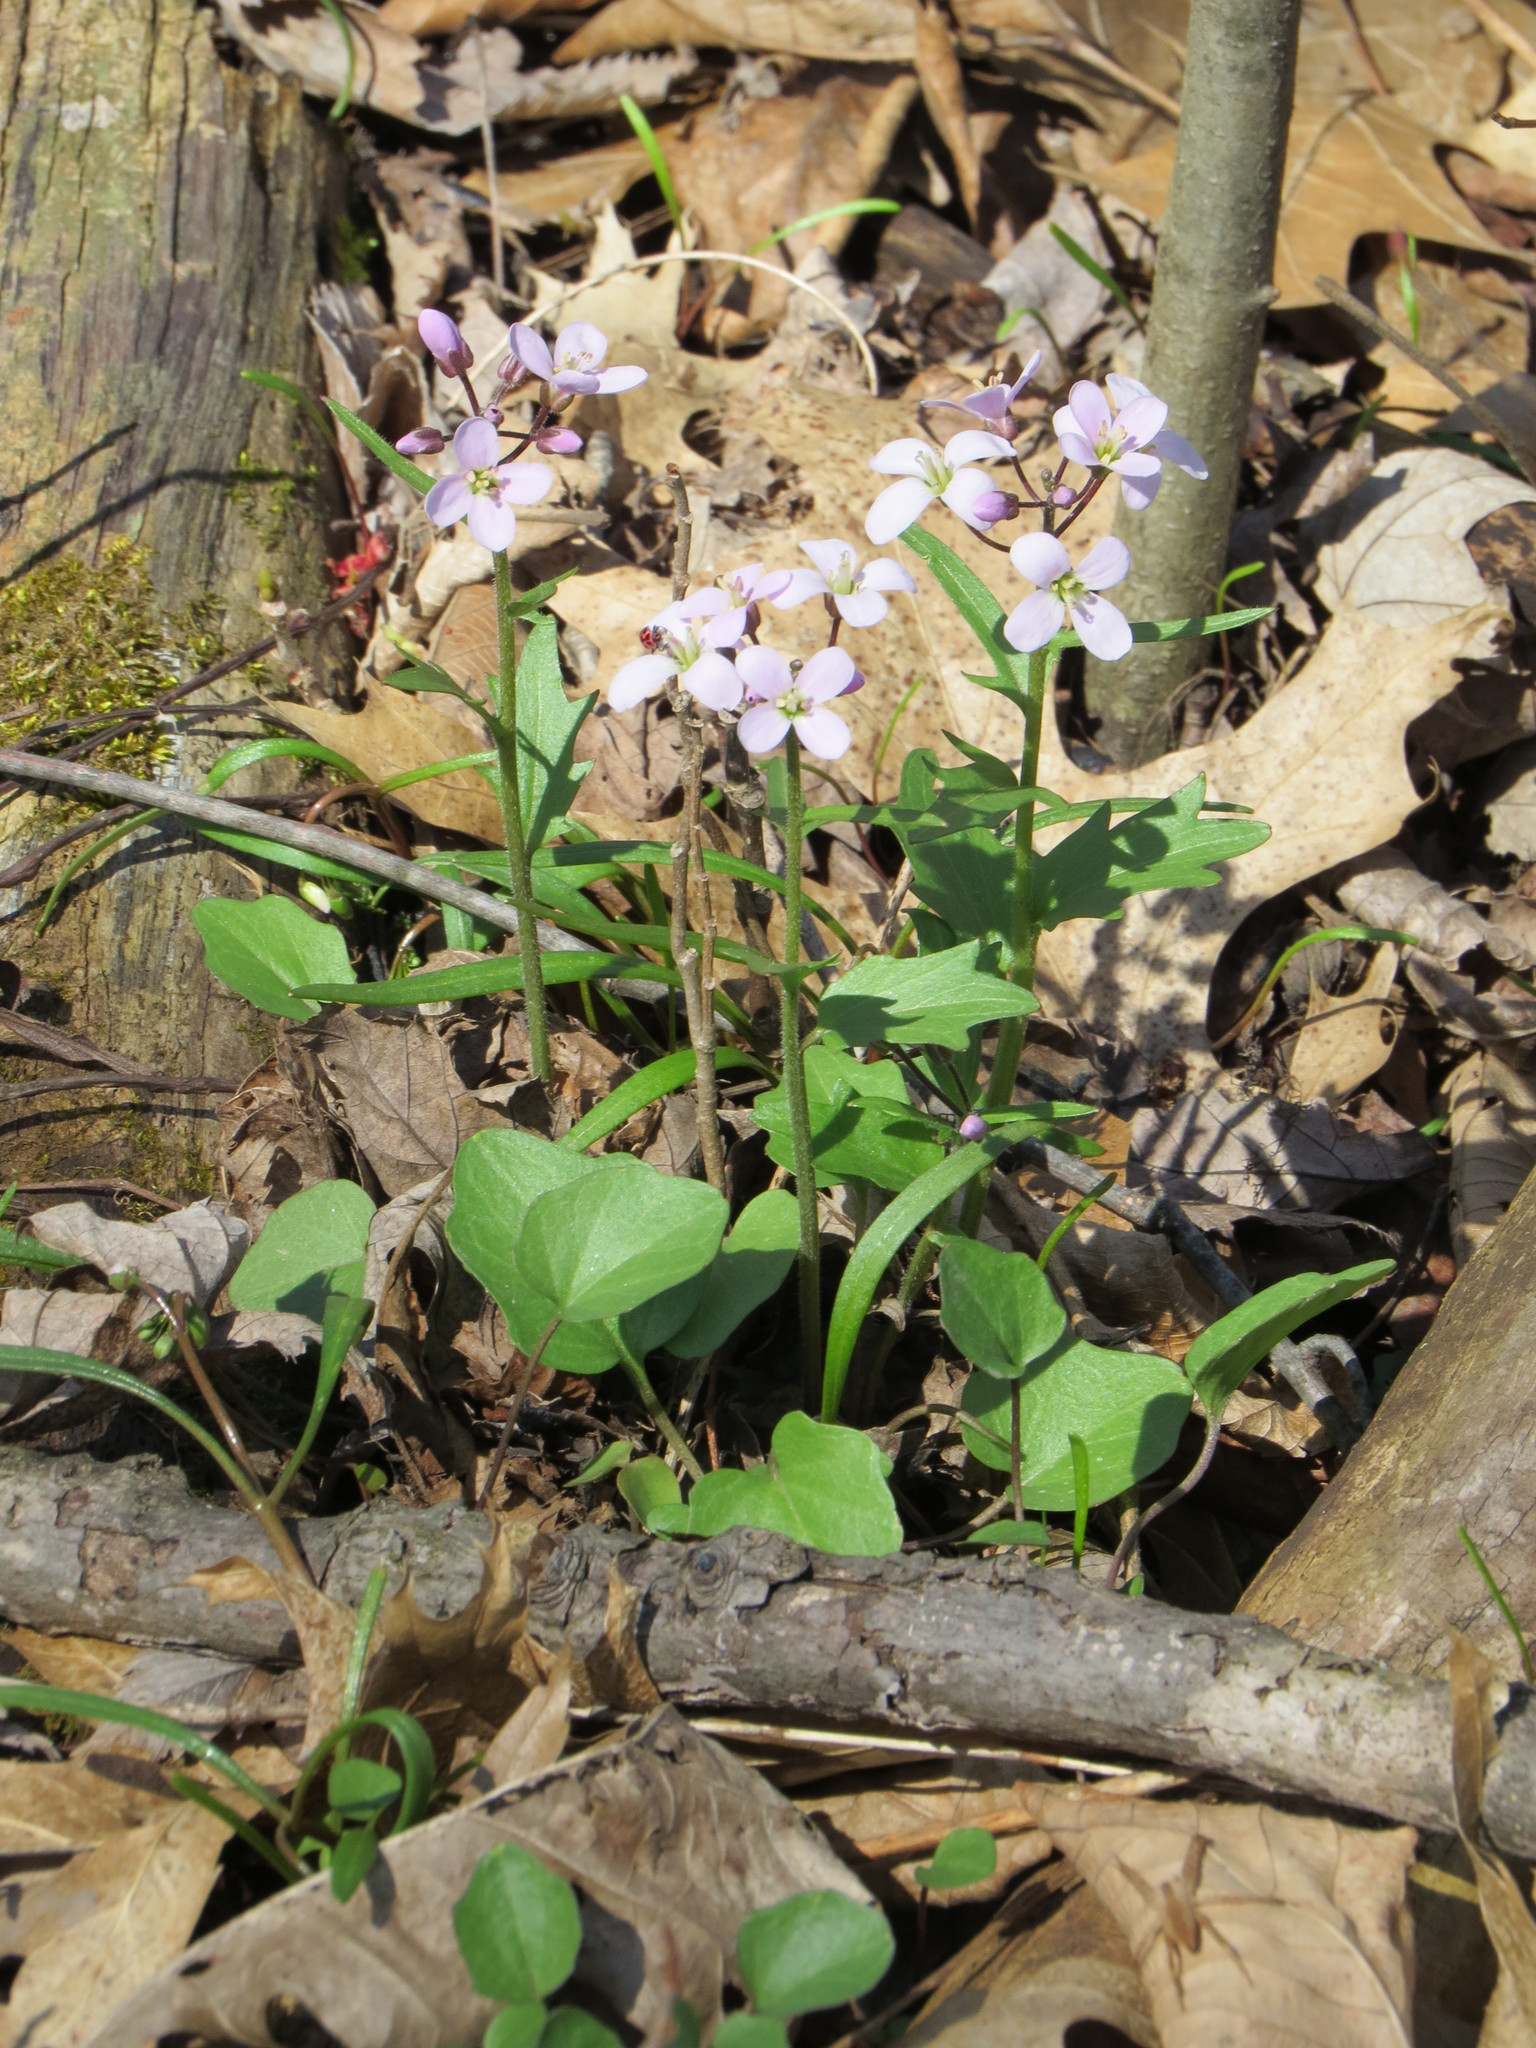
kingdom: Plantae
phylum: Tracheophyta
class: Magnoliopsida
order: Brassicales
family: Brassicaceae
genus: Cardamine
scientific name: Cardamine douglassii
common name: Purple cress
